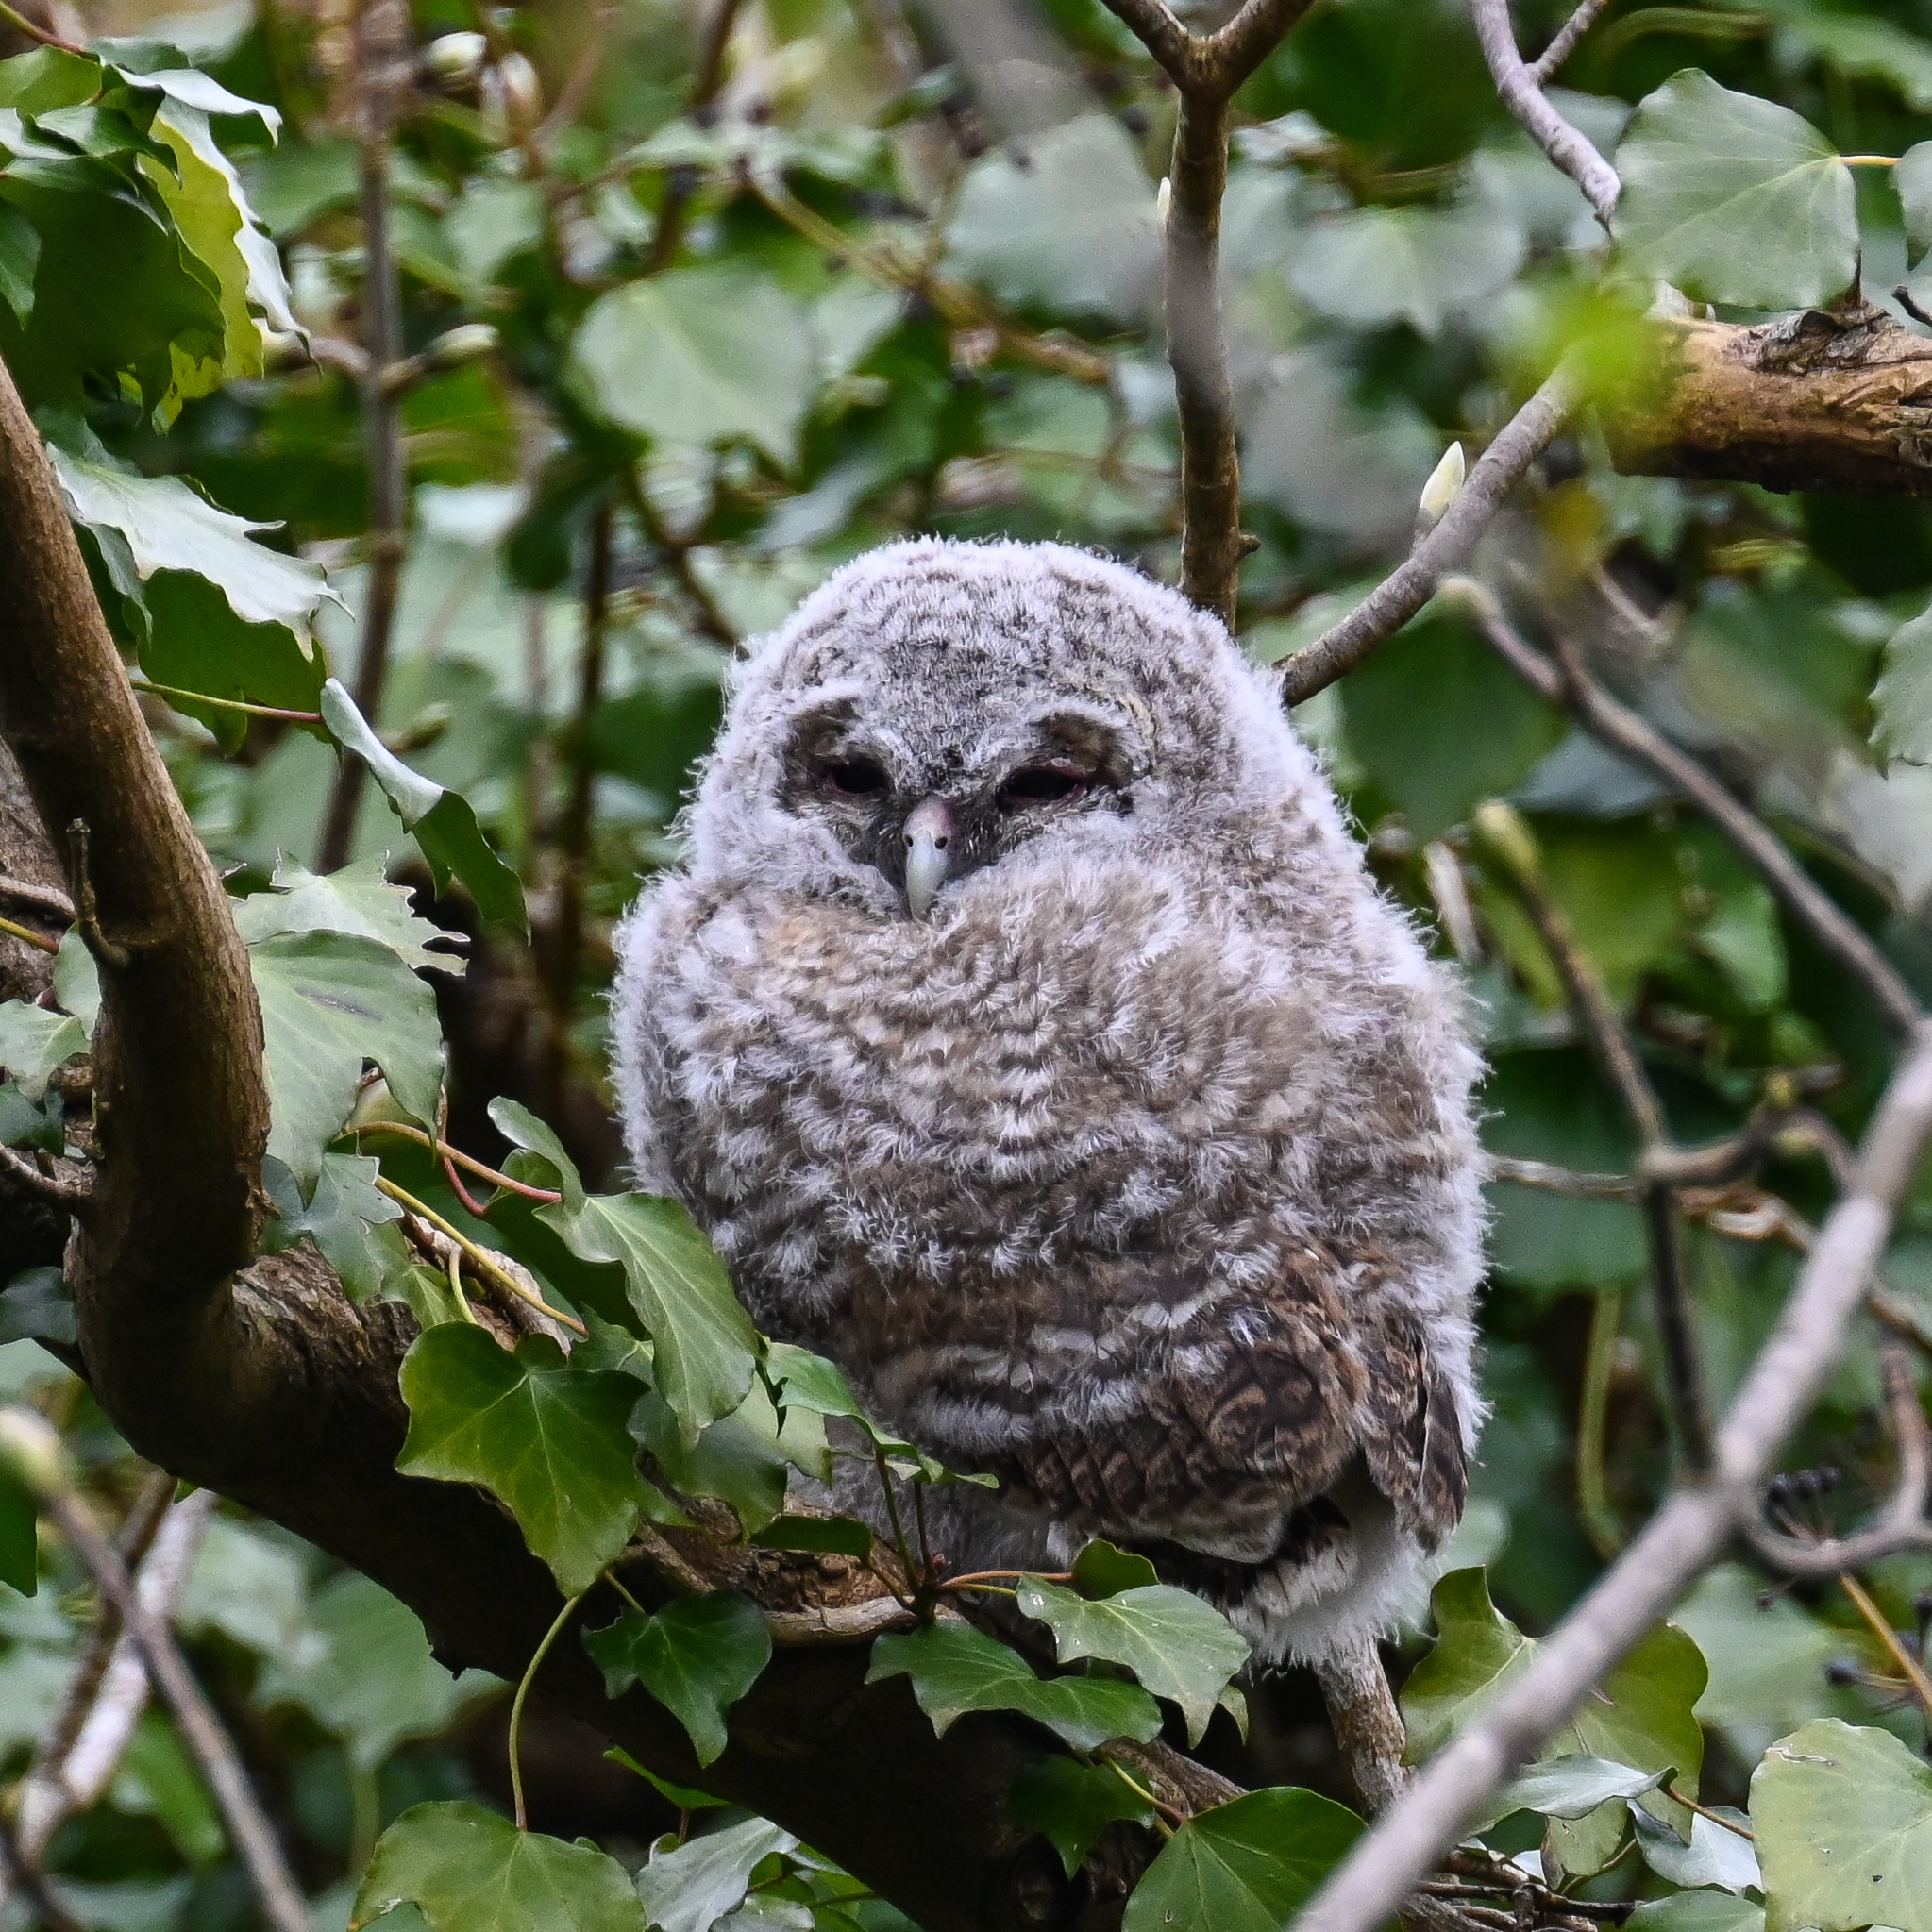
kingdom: Animalia
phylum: Chordata
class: Aves
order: Strigiformes
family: Strigidae
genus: Strix
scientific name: Strix aluco
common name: Tawny owl
